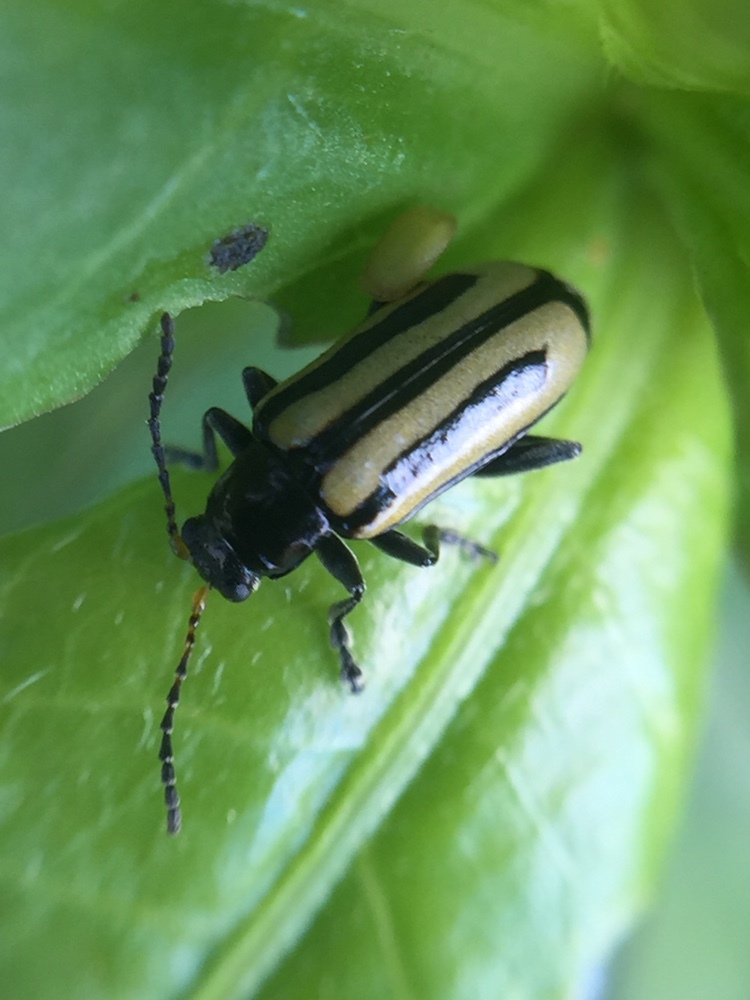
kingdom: Animalia
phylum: Arthropoda
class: Insecta
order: Coleoptera
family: Chrysomelidae
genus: Agasicles
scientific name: Agasicles hygrophila
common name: Alligatorweed flea beetle
